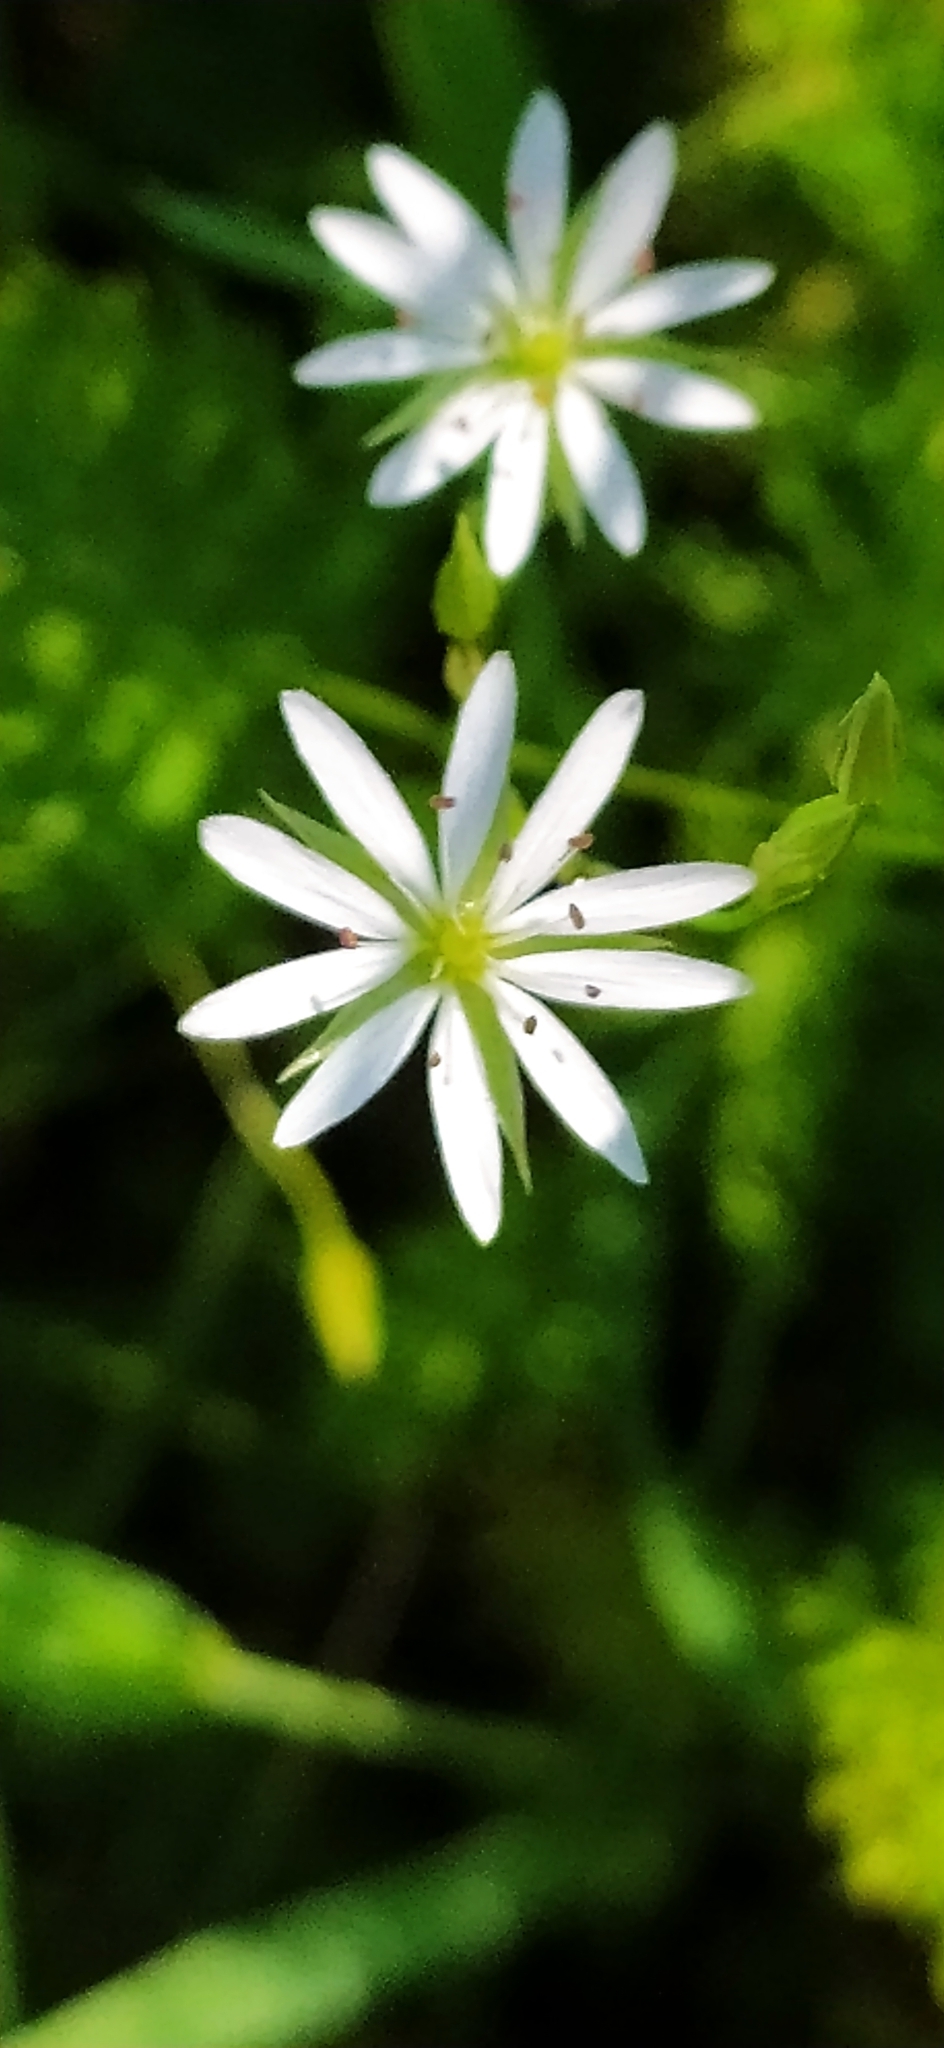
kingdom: Plantae
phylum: Tracheophyta
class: Magnoliopsida
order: Caryophyllales
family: Caryophyllaceae
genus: Stellaria
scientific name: Stellaria graminea
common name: Grass-like starwort
